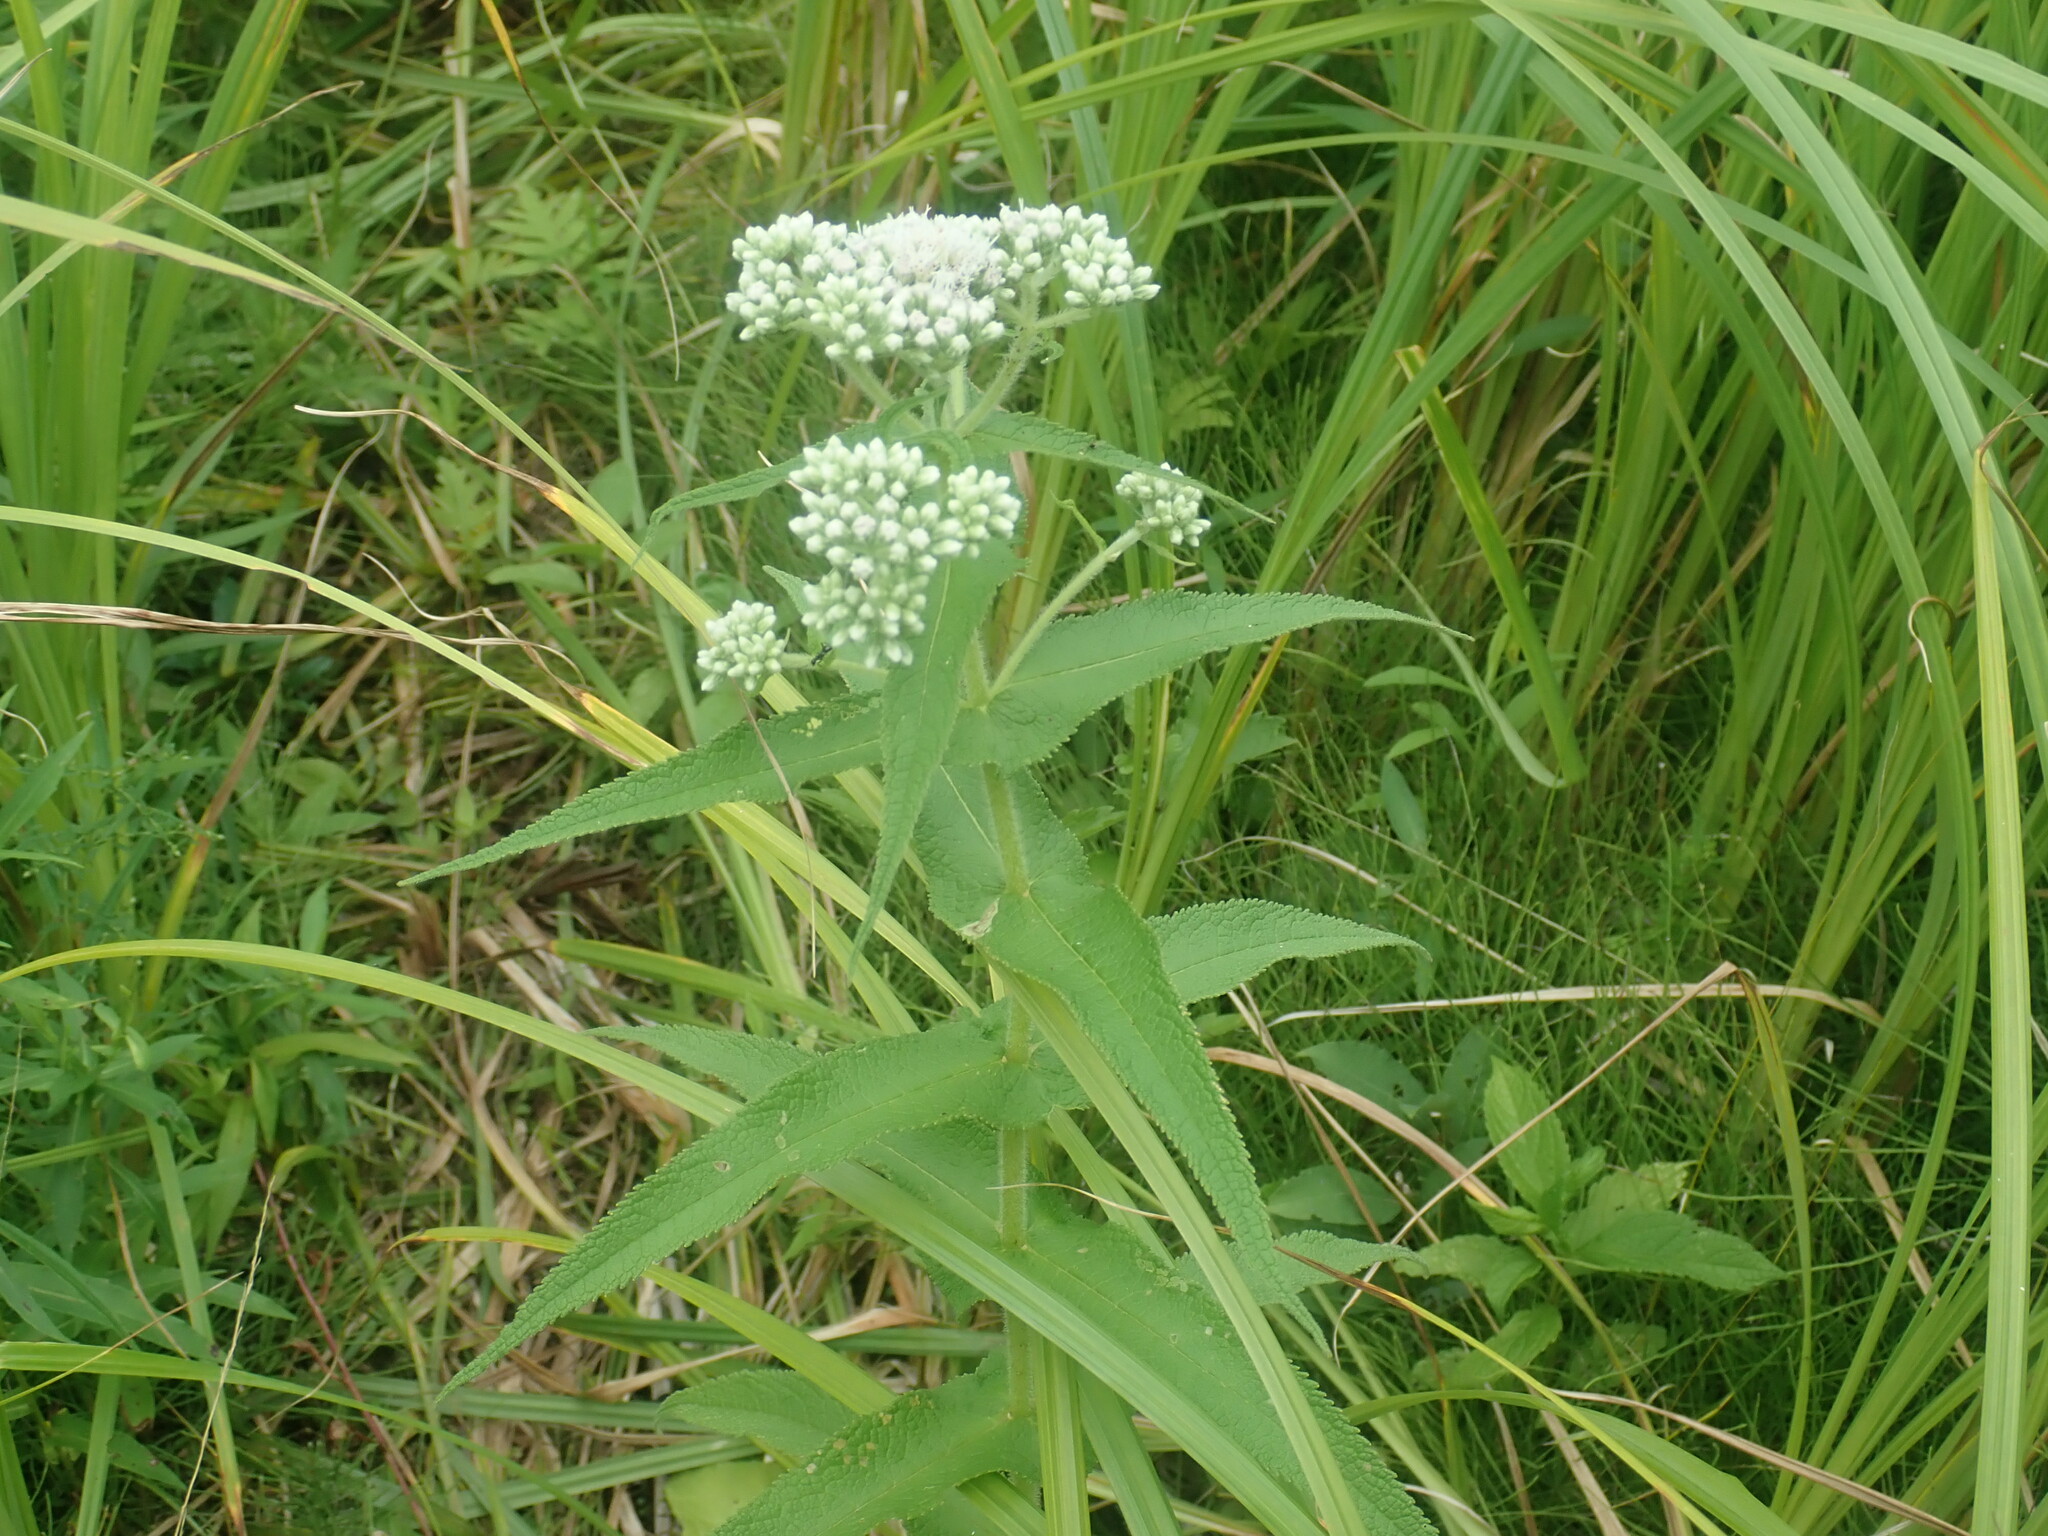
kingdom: Plantae
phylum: Tracheophyta
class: Magnoliopsida
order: Asterales
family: Asteraceae
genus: Eupatorium
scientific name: Eupatorium perfoliatum
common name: Boneset
